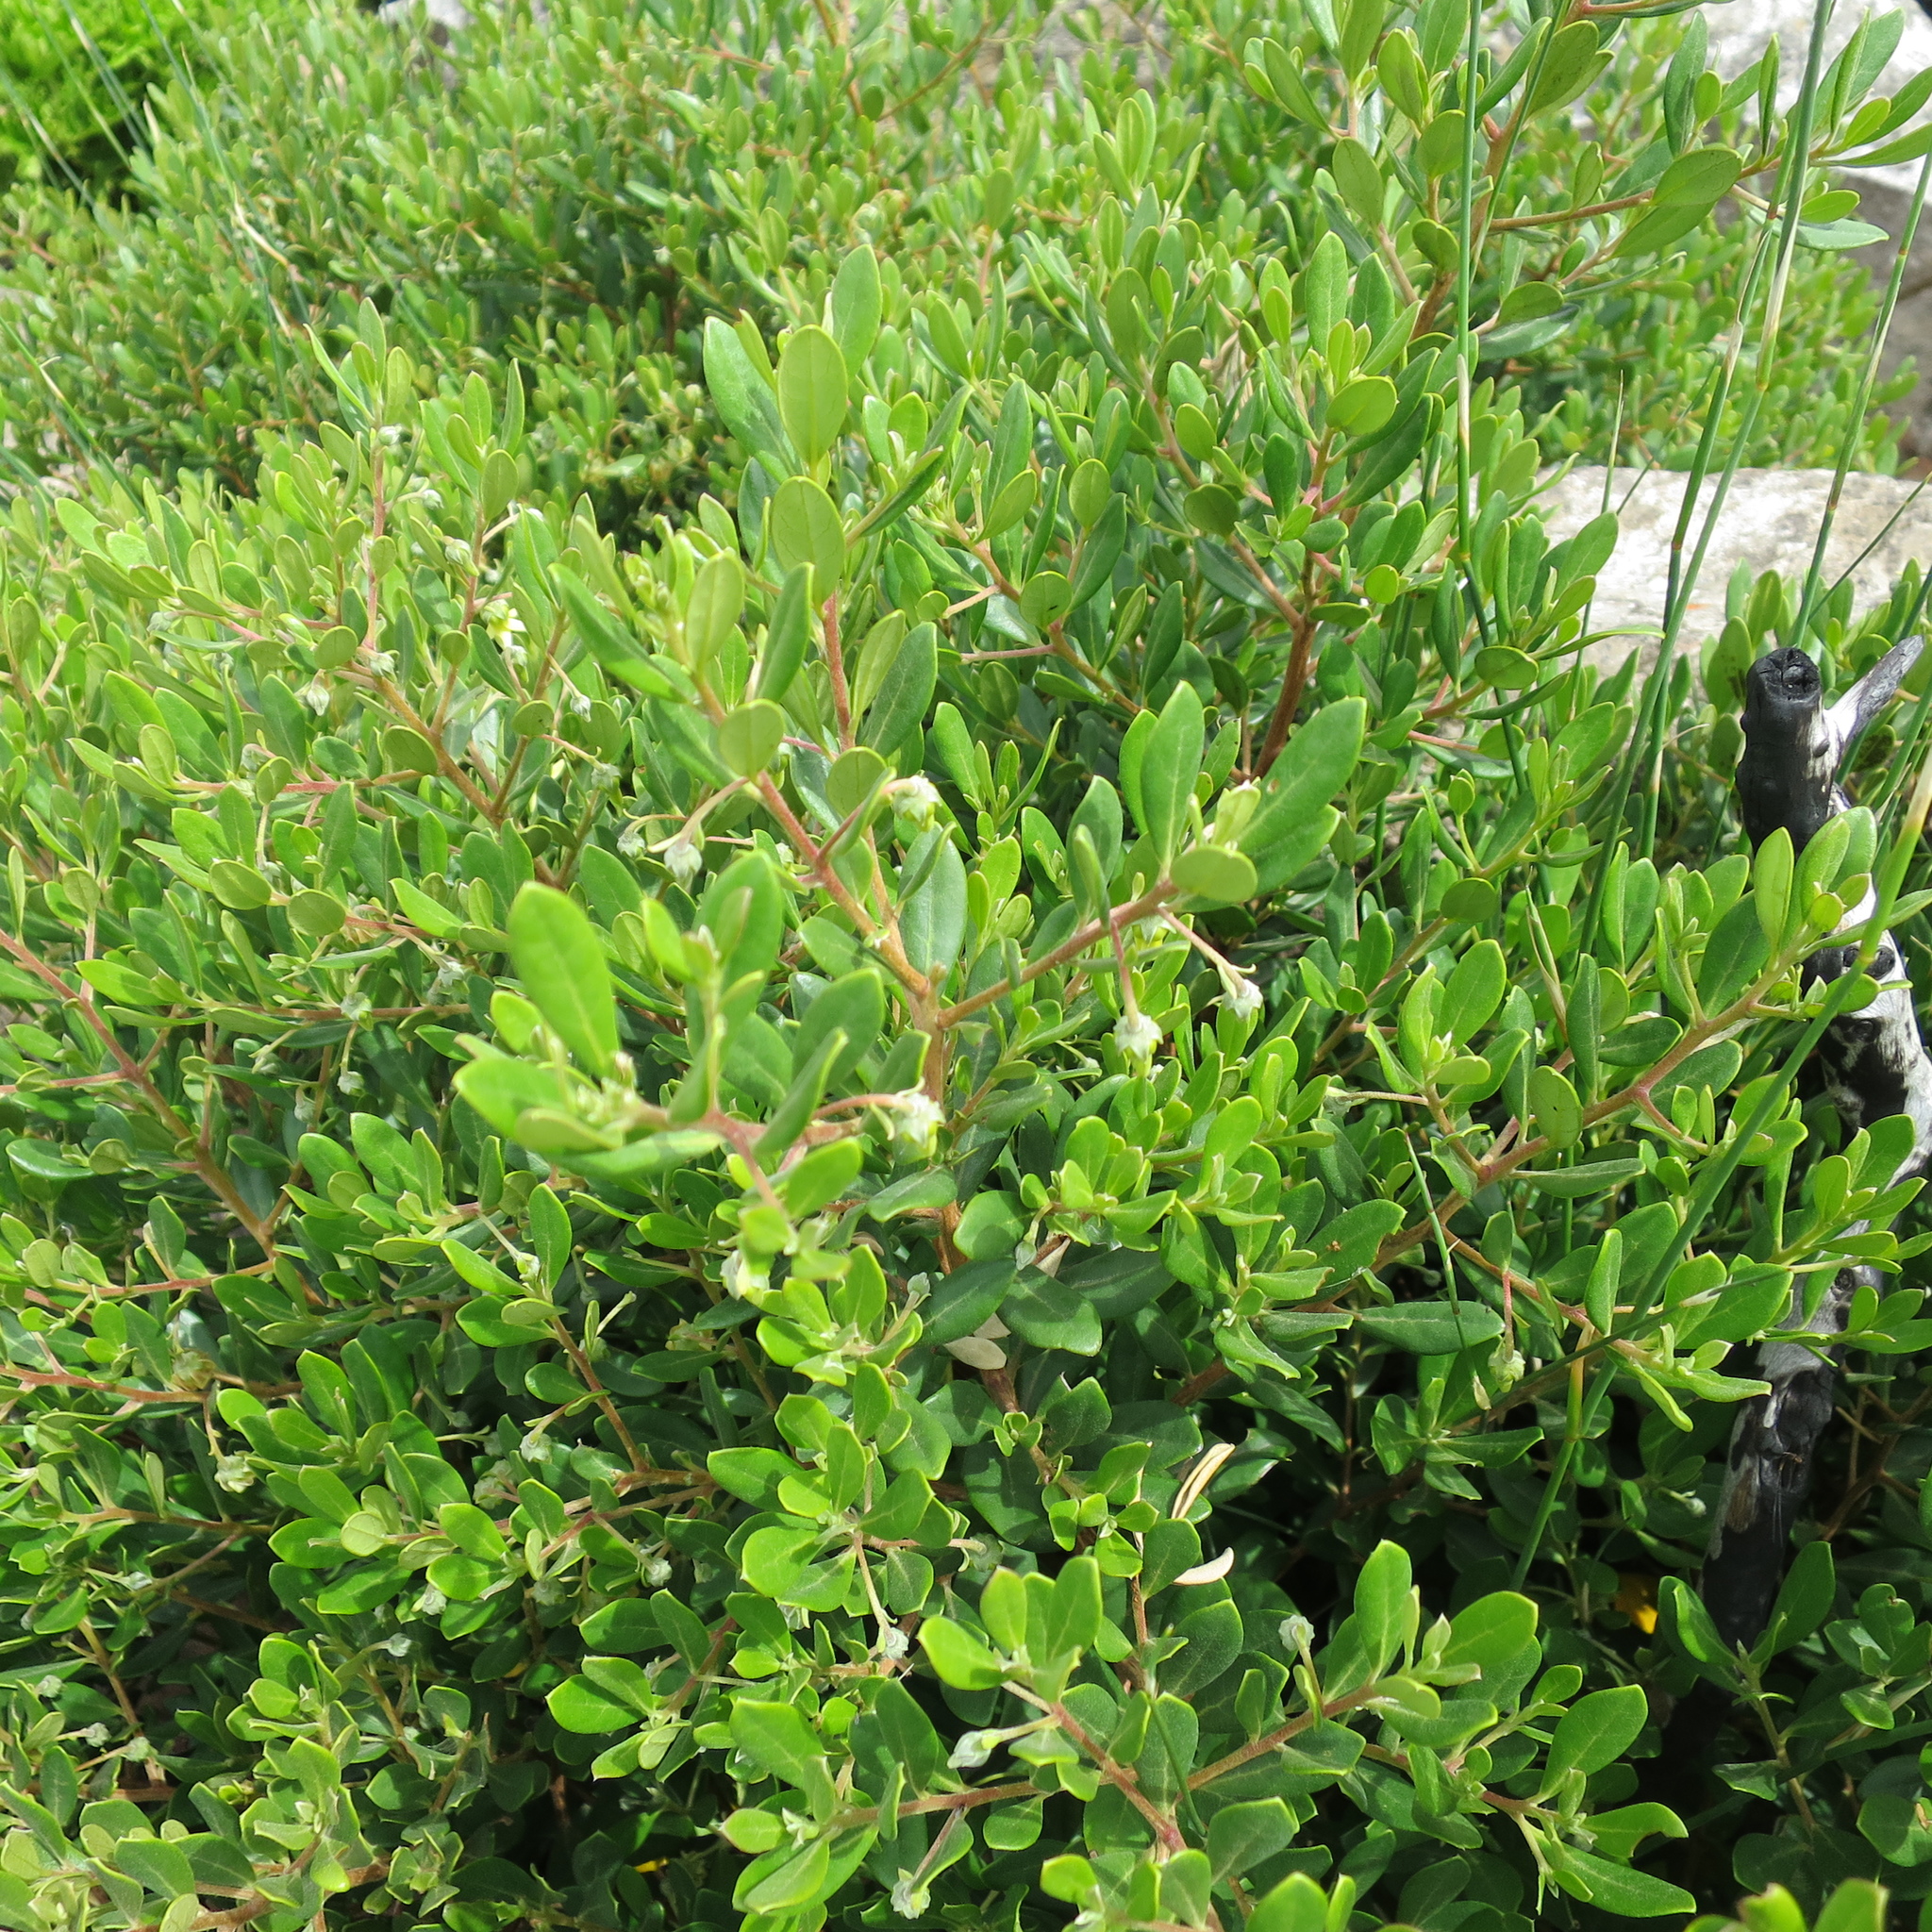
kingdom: Plantae
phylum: Tracheophyta
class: Magnoliopsida
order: Ericales
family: Ebenaceae
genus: Diospyros
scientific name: Diospyros glabra
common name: Fynbos star apple
